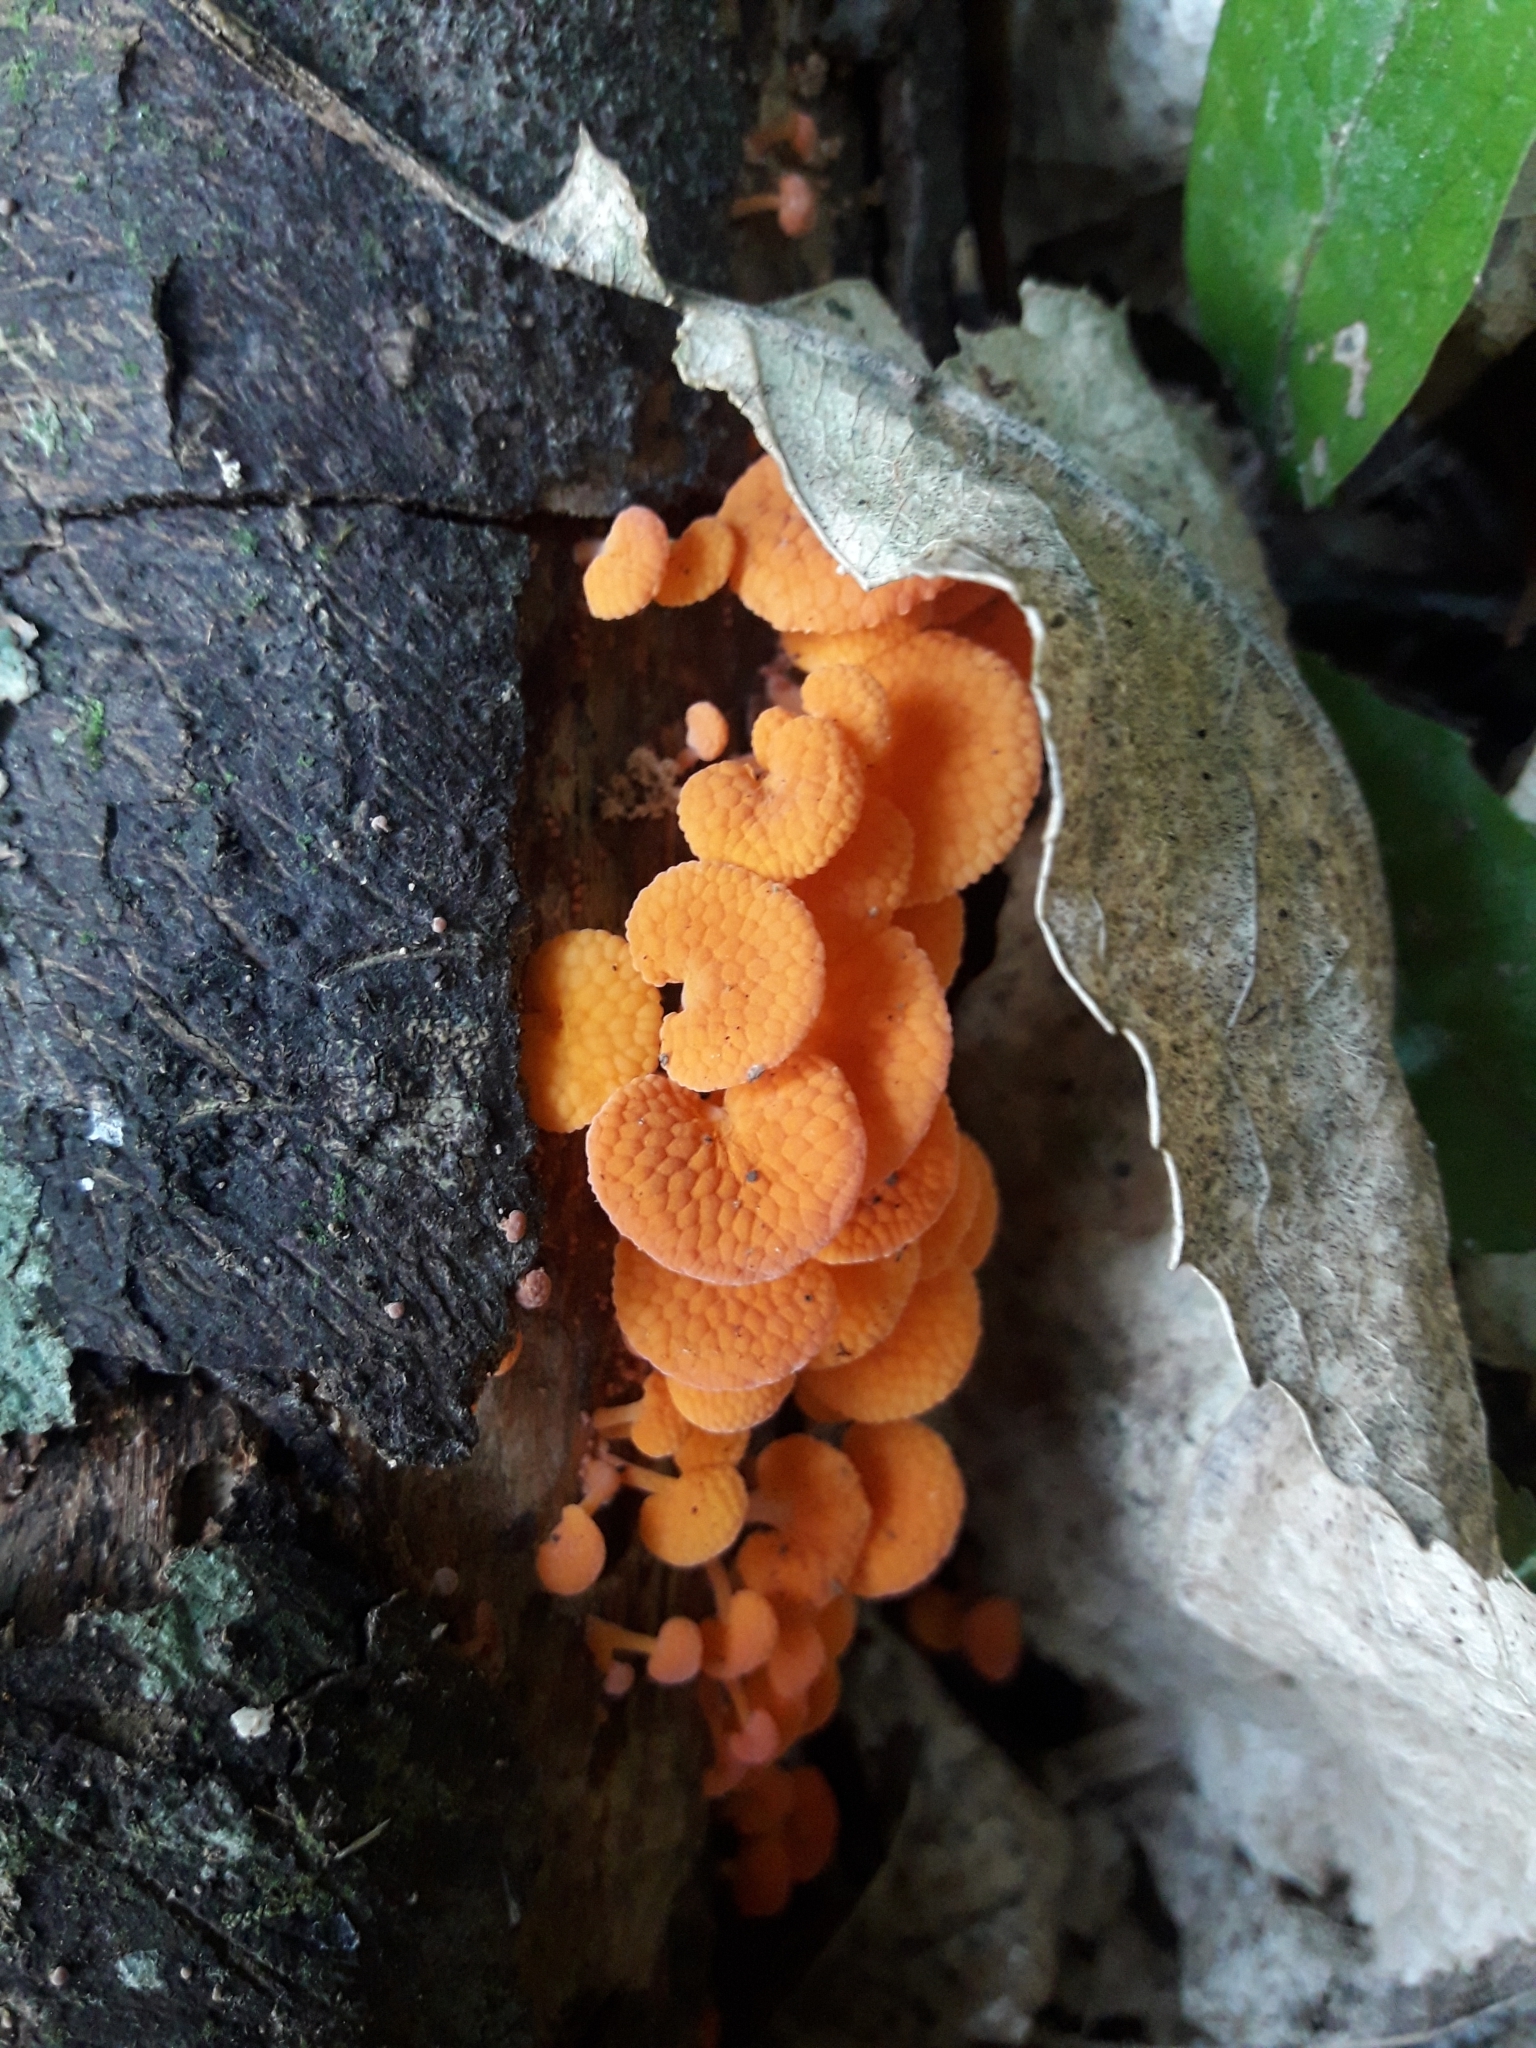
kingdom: Fungi
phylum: Basidiomycota
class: Agaricomycetes
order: Agaricales
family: Mycenaceae
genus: Favolaschia
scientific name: Favolaschia claudopus
